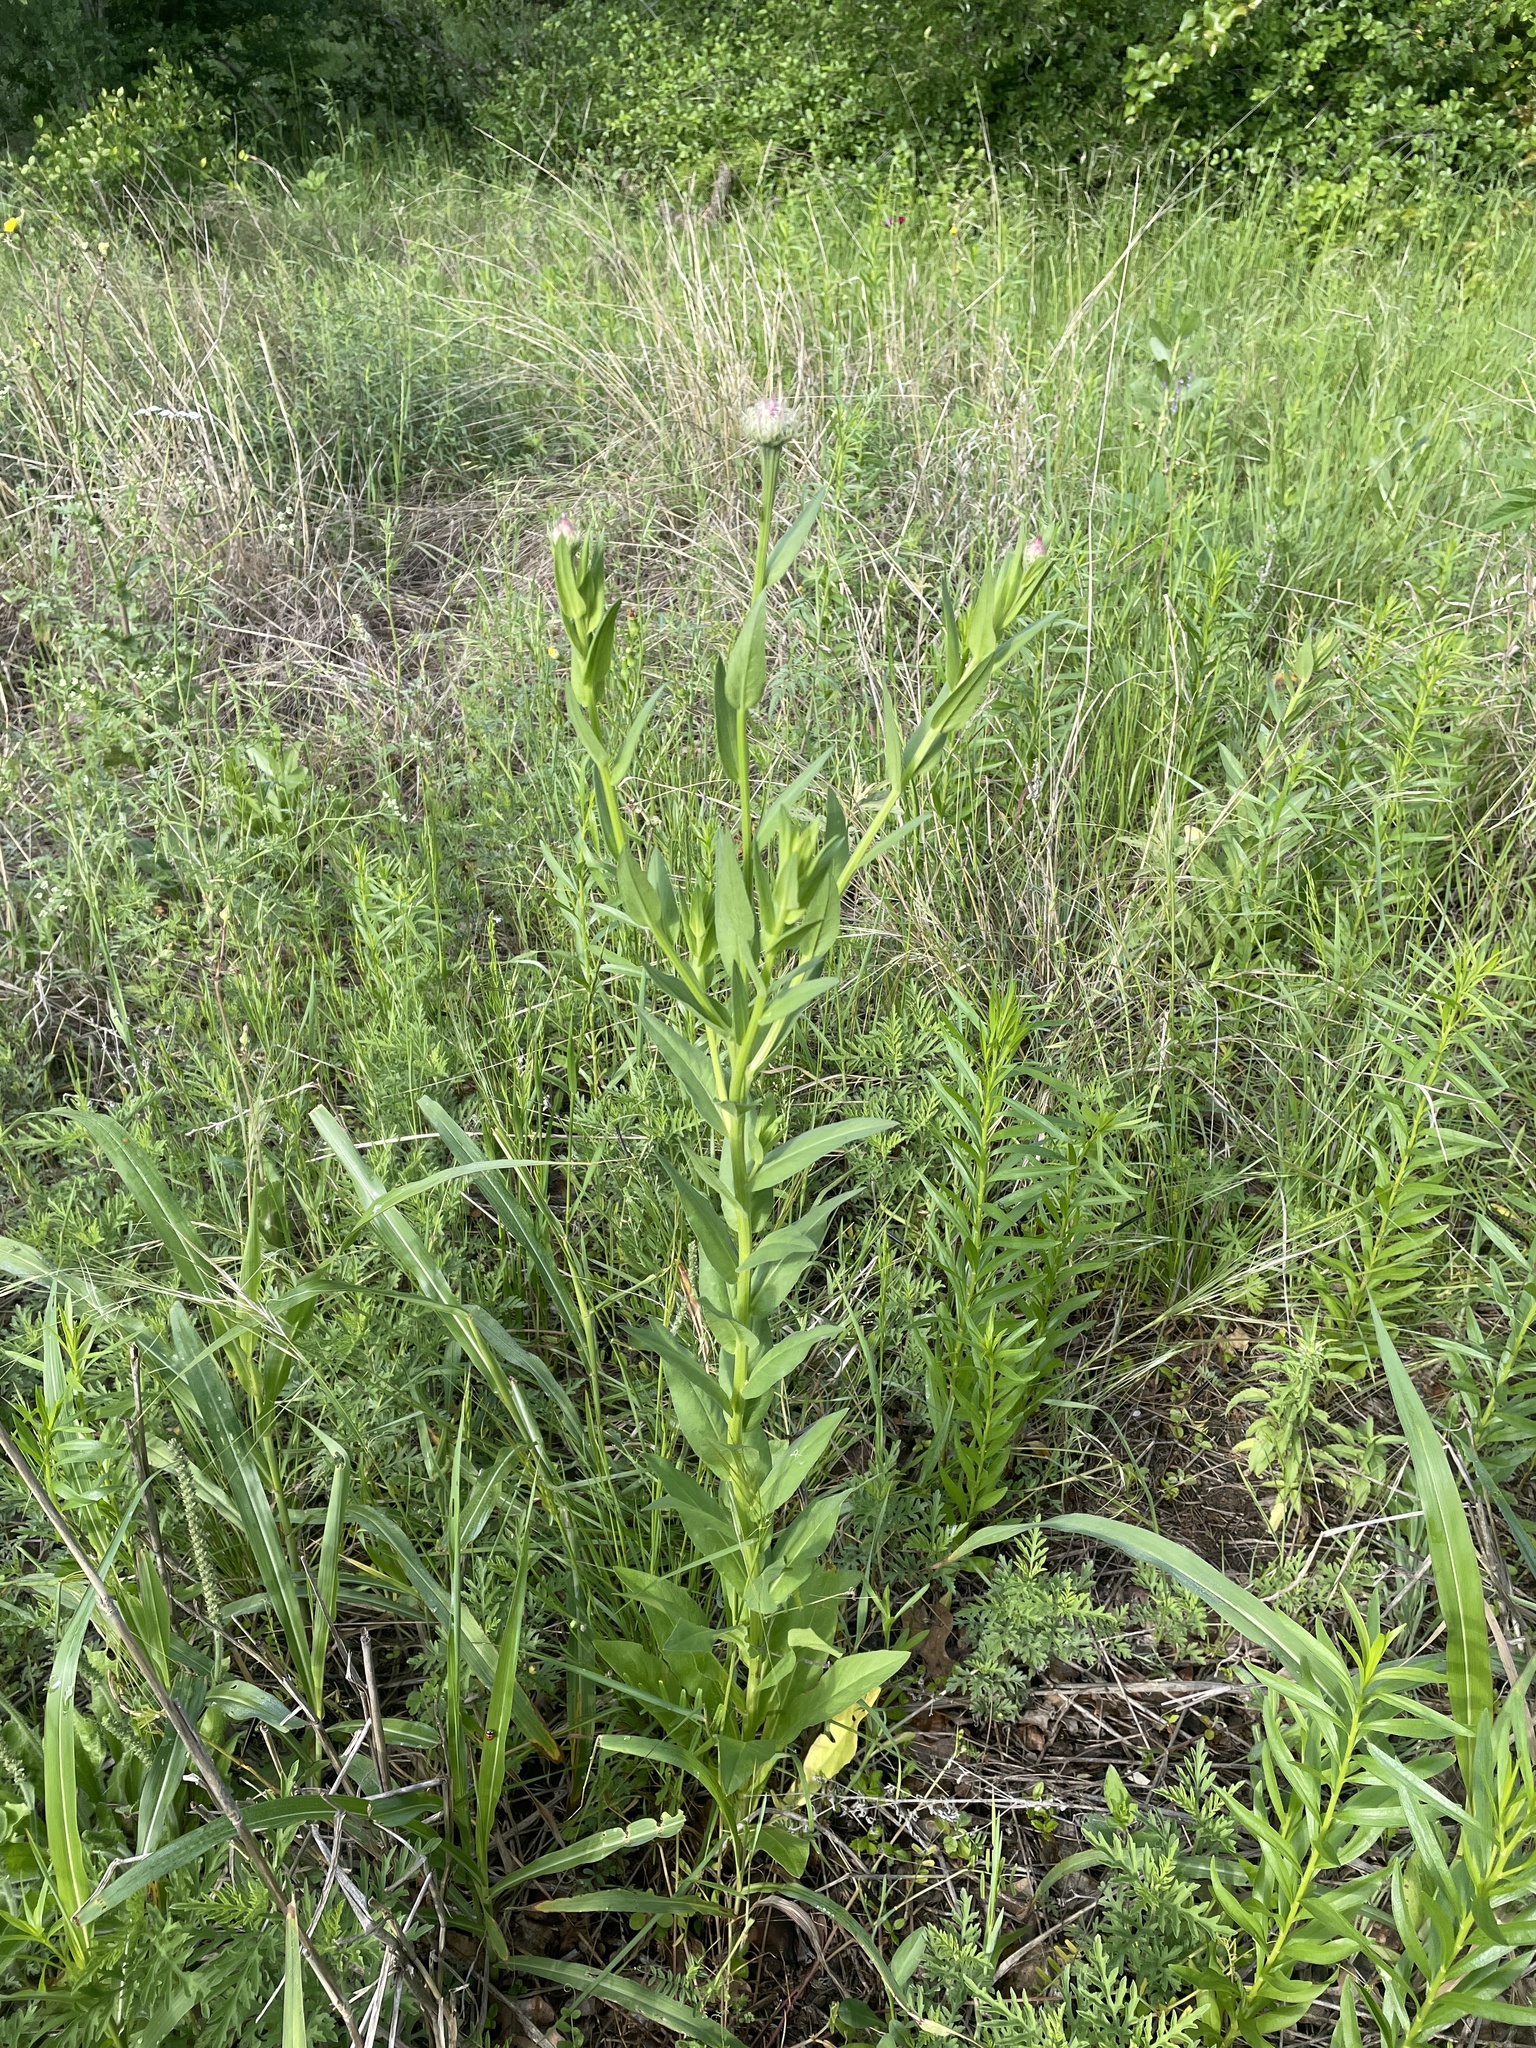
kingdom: Plantae
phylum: Tracheophyta
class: Magnoliopsida
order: Asterales
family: Asteraceae
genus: Plectocephalus
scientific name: Plectocephalus americanus
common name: American basket-flower
